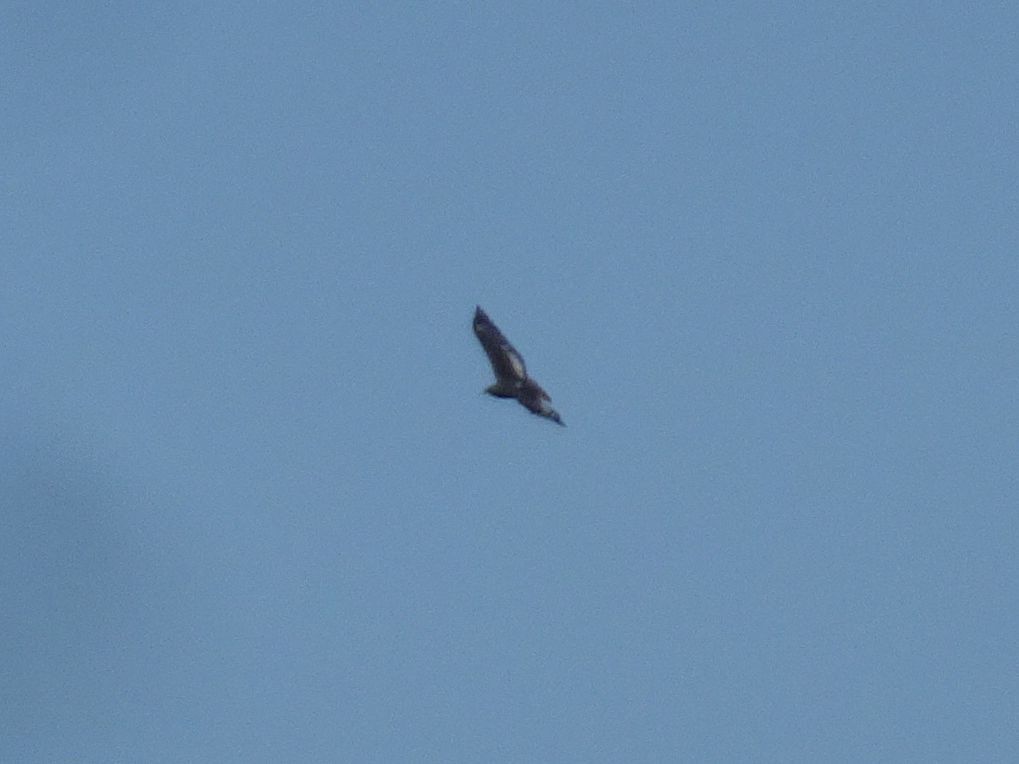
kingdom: Animalia
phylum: Chordata
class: Aves
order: Accipitriformes
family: Accipitridae
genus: Buteo
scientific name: Buteo rufofuscus
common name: Jackal buzzard
